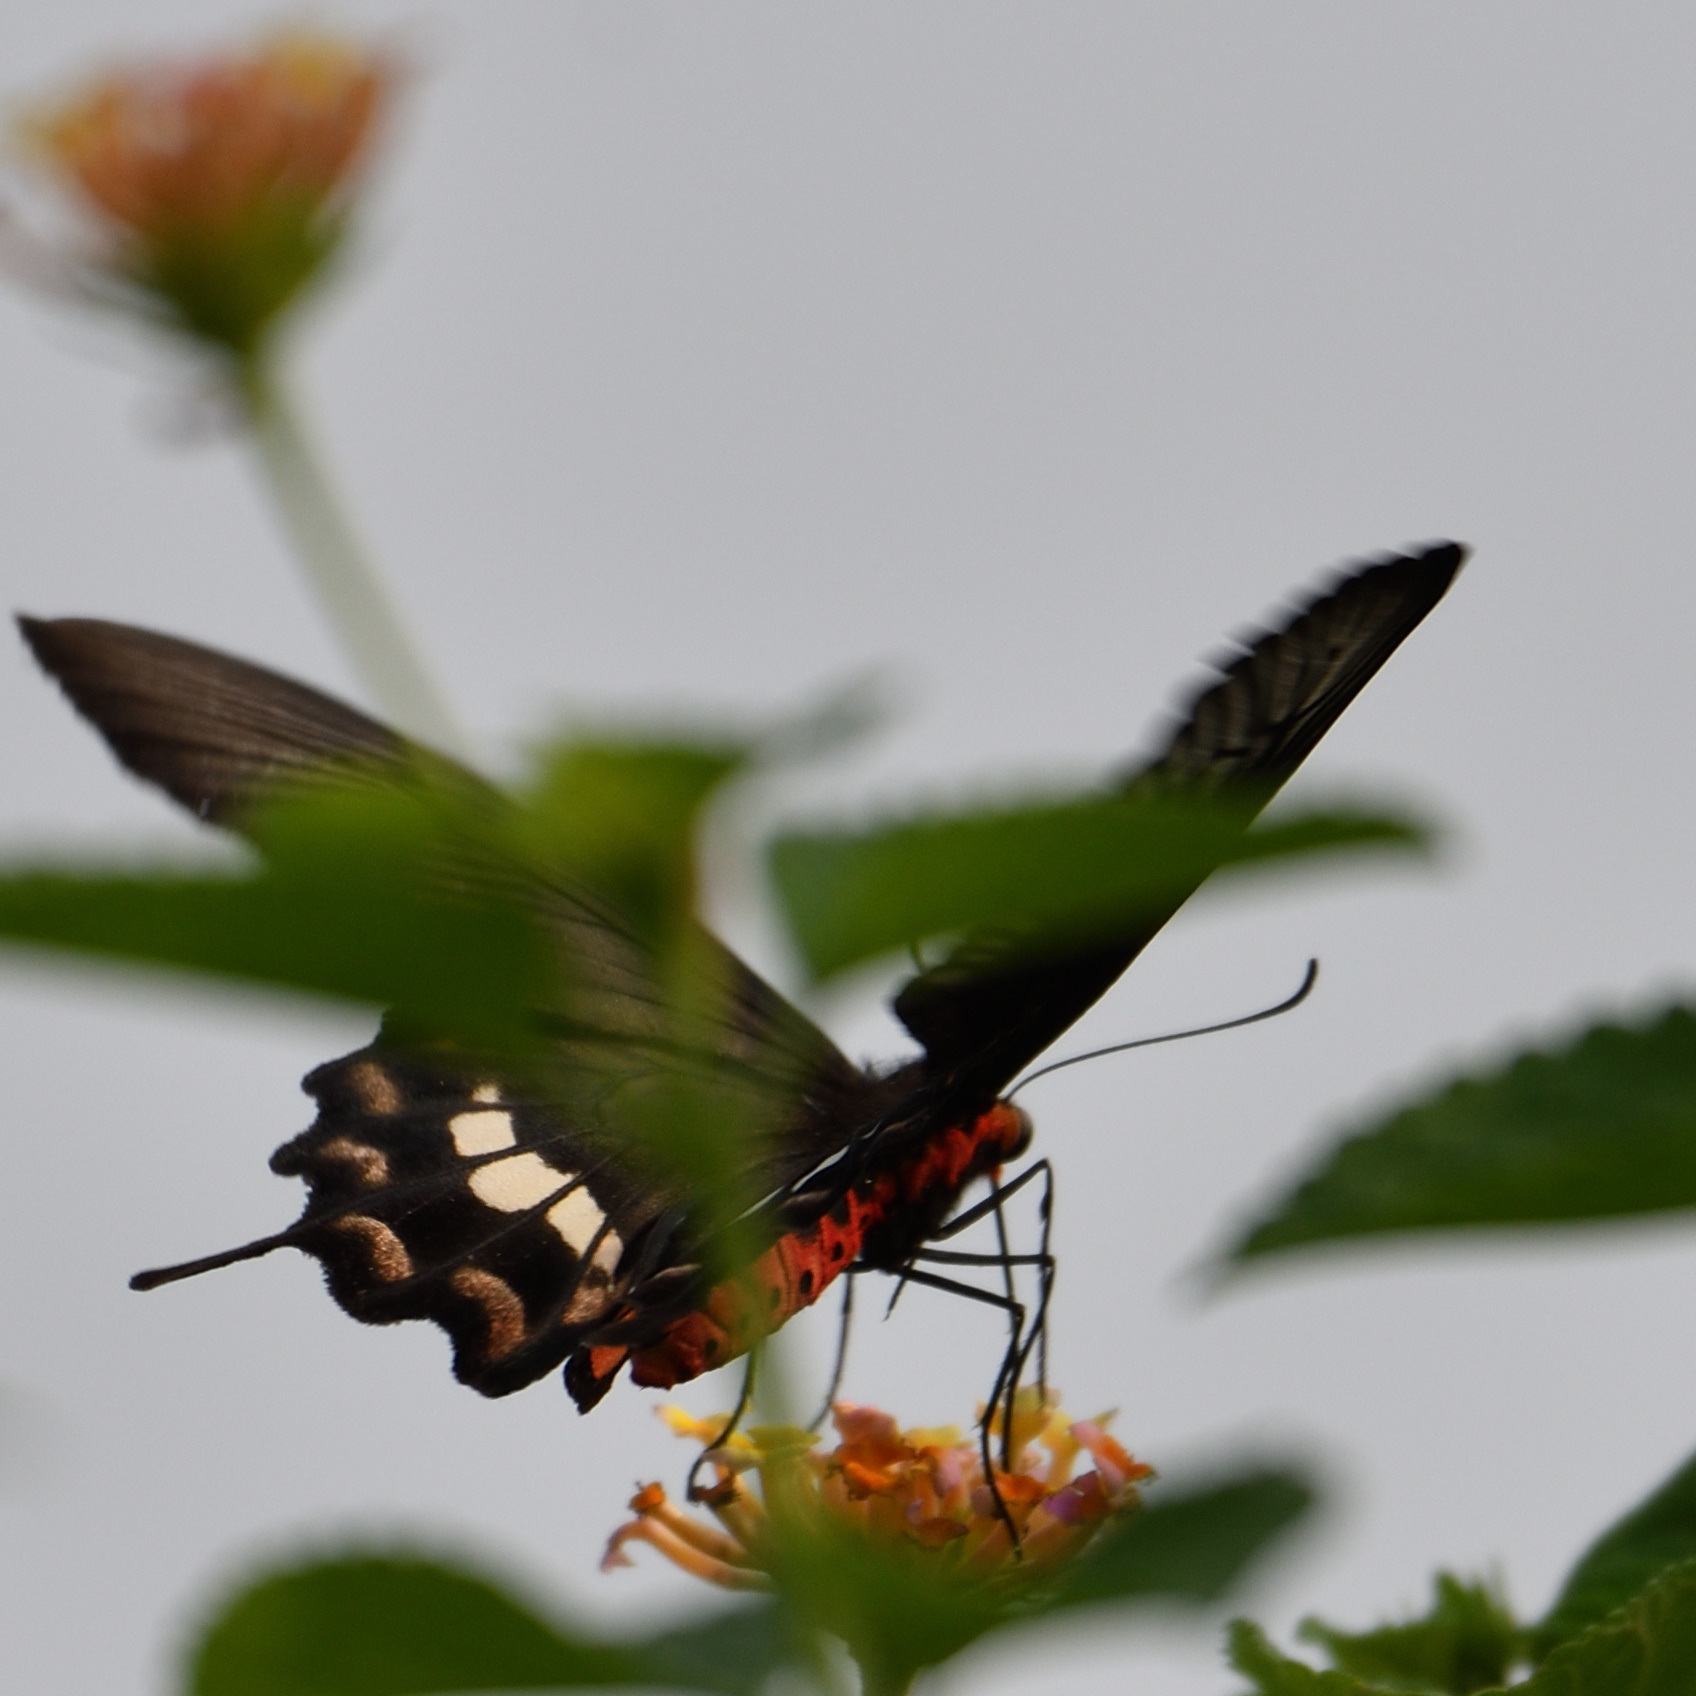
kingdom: Animalia
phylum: Arthropoda
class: Insecta
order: Lepidoptera
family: Papilionidae
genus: Pachliopta
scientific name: Pachliopta aristolochiae
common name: Common rose
